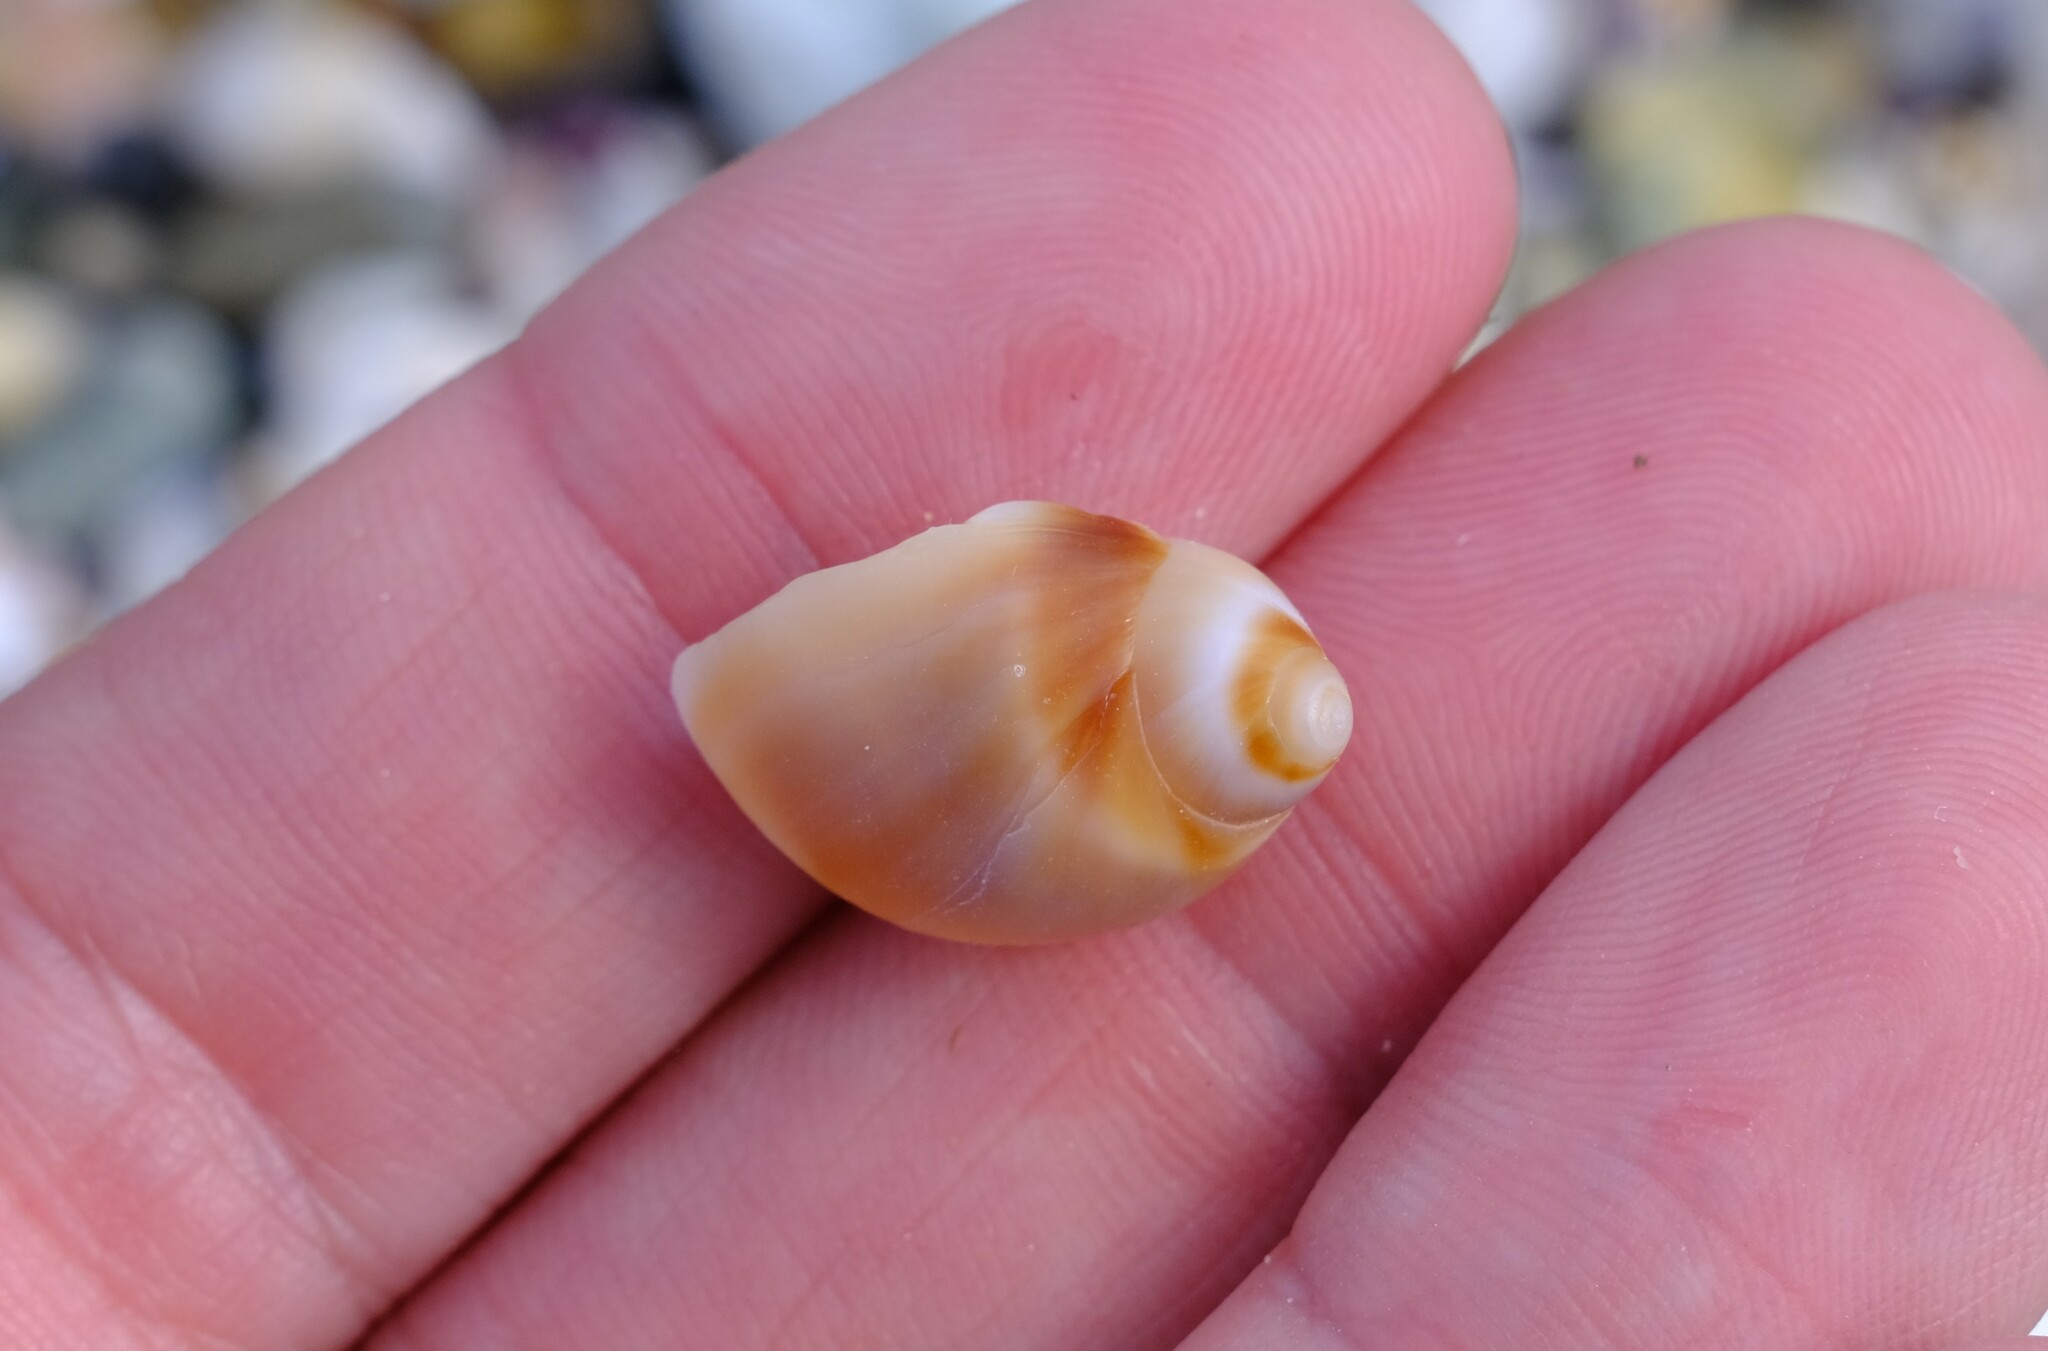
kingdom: Animalia
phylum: Mollusca
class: Gastropoda
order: Littorinimorpha
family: Naticidae
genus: Conuber
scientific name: Conuber conicum
